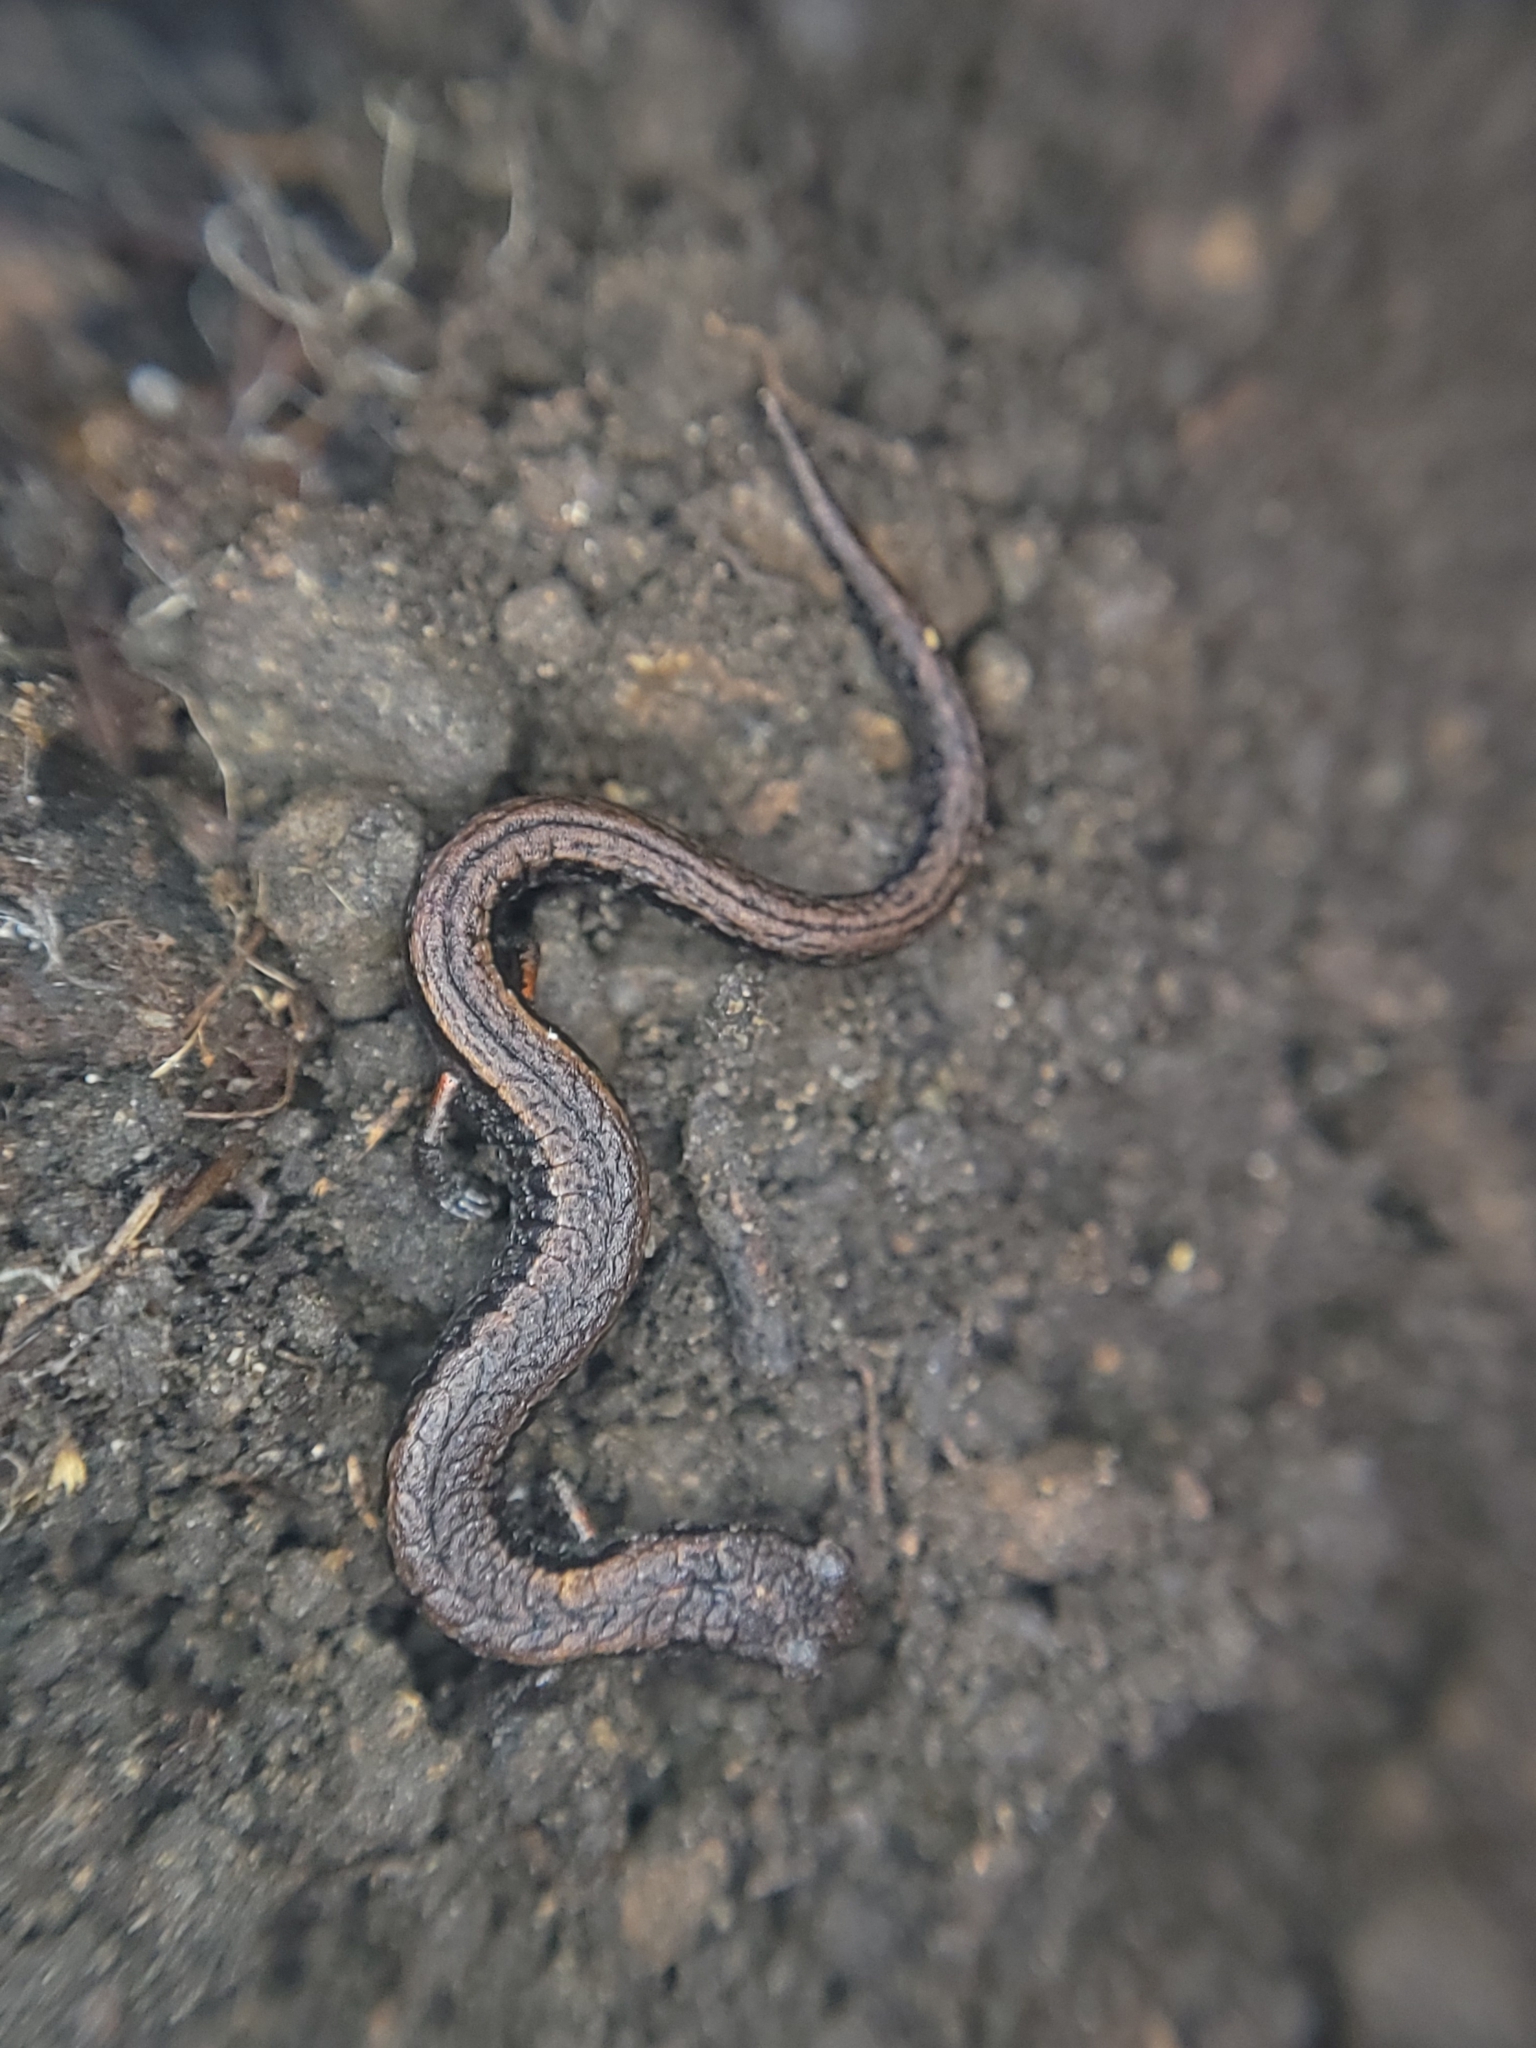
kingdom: Animalia
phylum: Chordata
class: Amphibia
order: Caudata
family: Plethodontidae
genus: Batrachoseps
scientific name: Batrachoseps attenuatus
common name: California slender salamander
